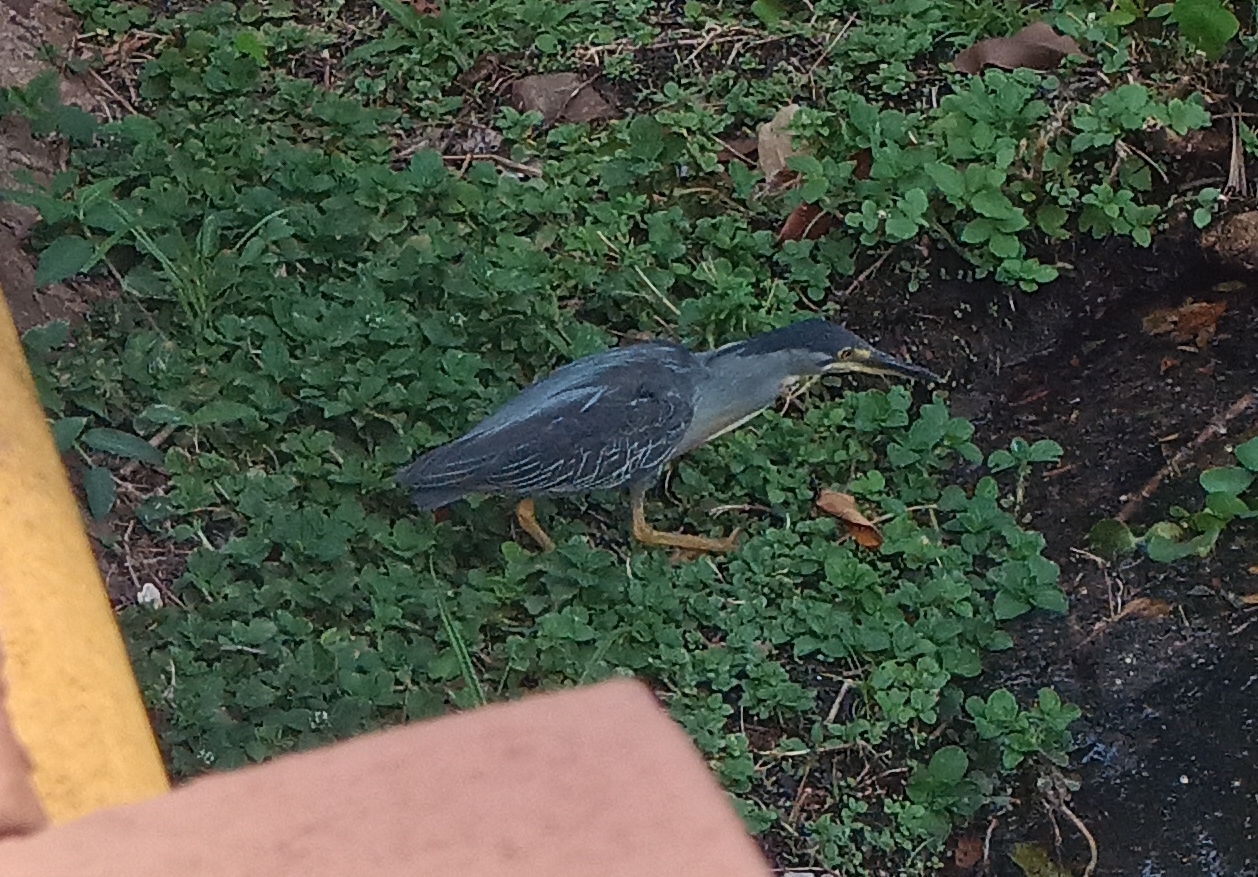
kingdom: Animalia
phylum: Chordata
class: Aves
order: Pelecaniformes
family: Ardeidae
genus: Butorides
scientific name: Butorides striata
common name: Striated heron
